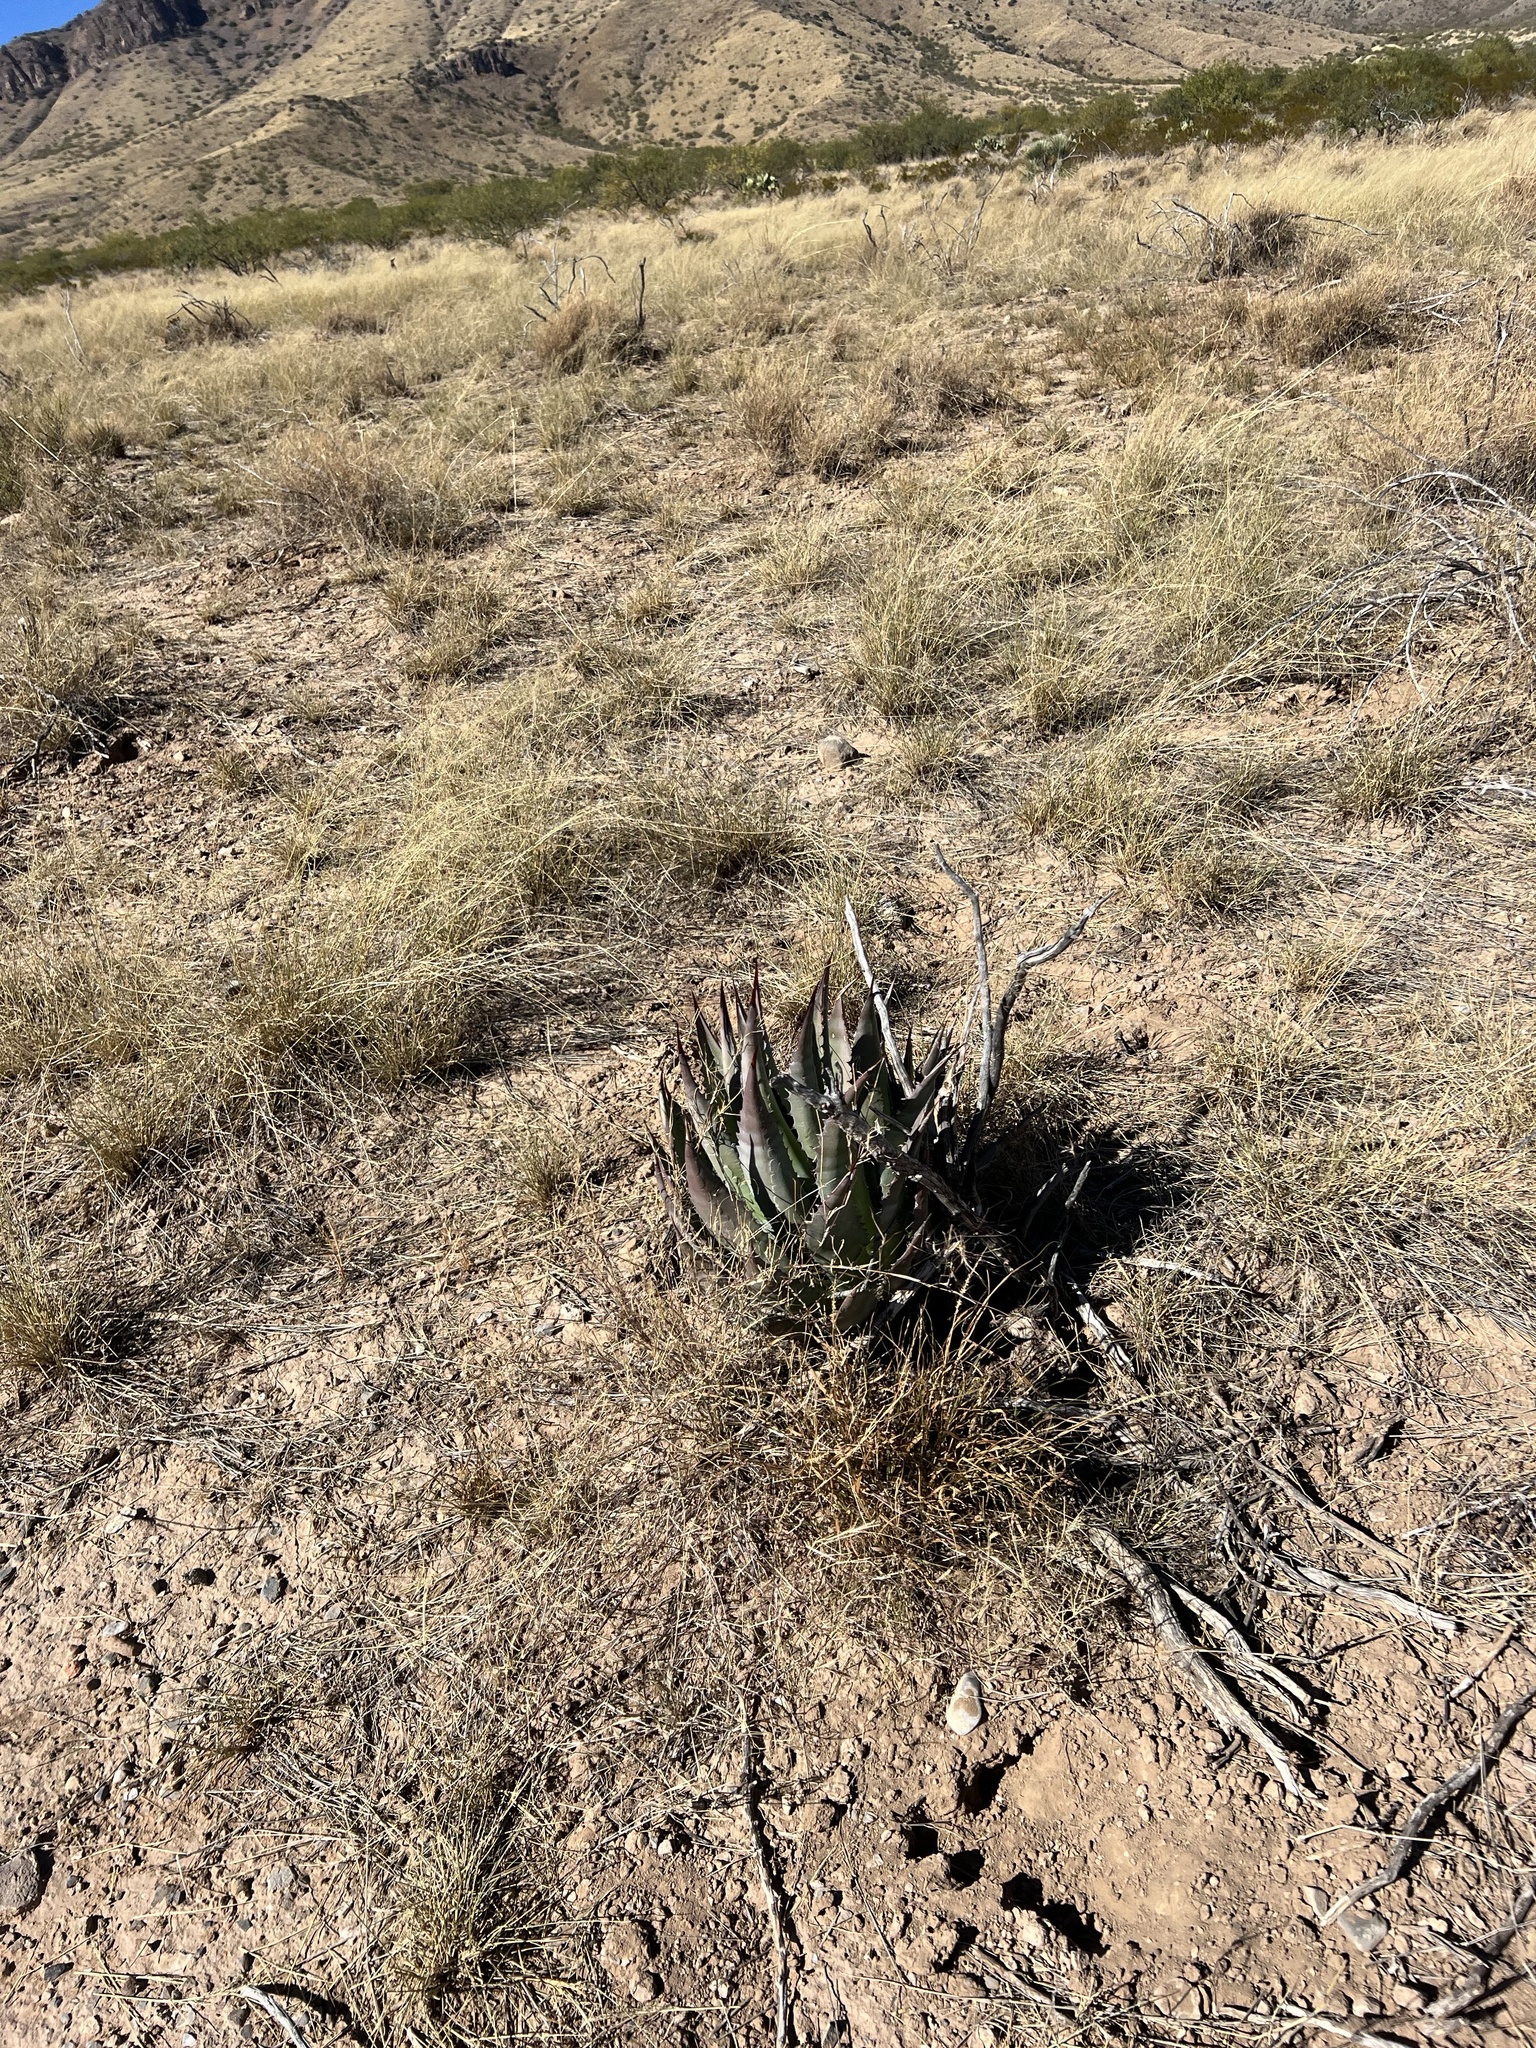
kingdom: Plantae
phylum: Tracheophyta
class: Liliopsida
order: Asparagales
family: Asparagaceae
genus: Agave
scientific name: Agave palmeri
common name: Palmer agave
